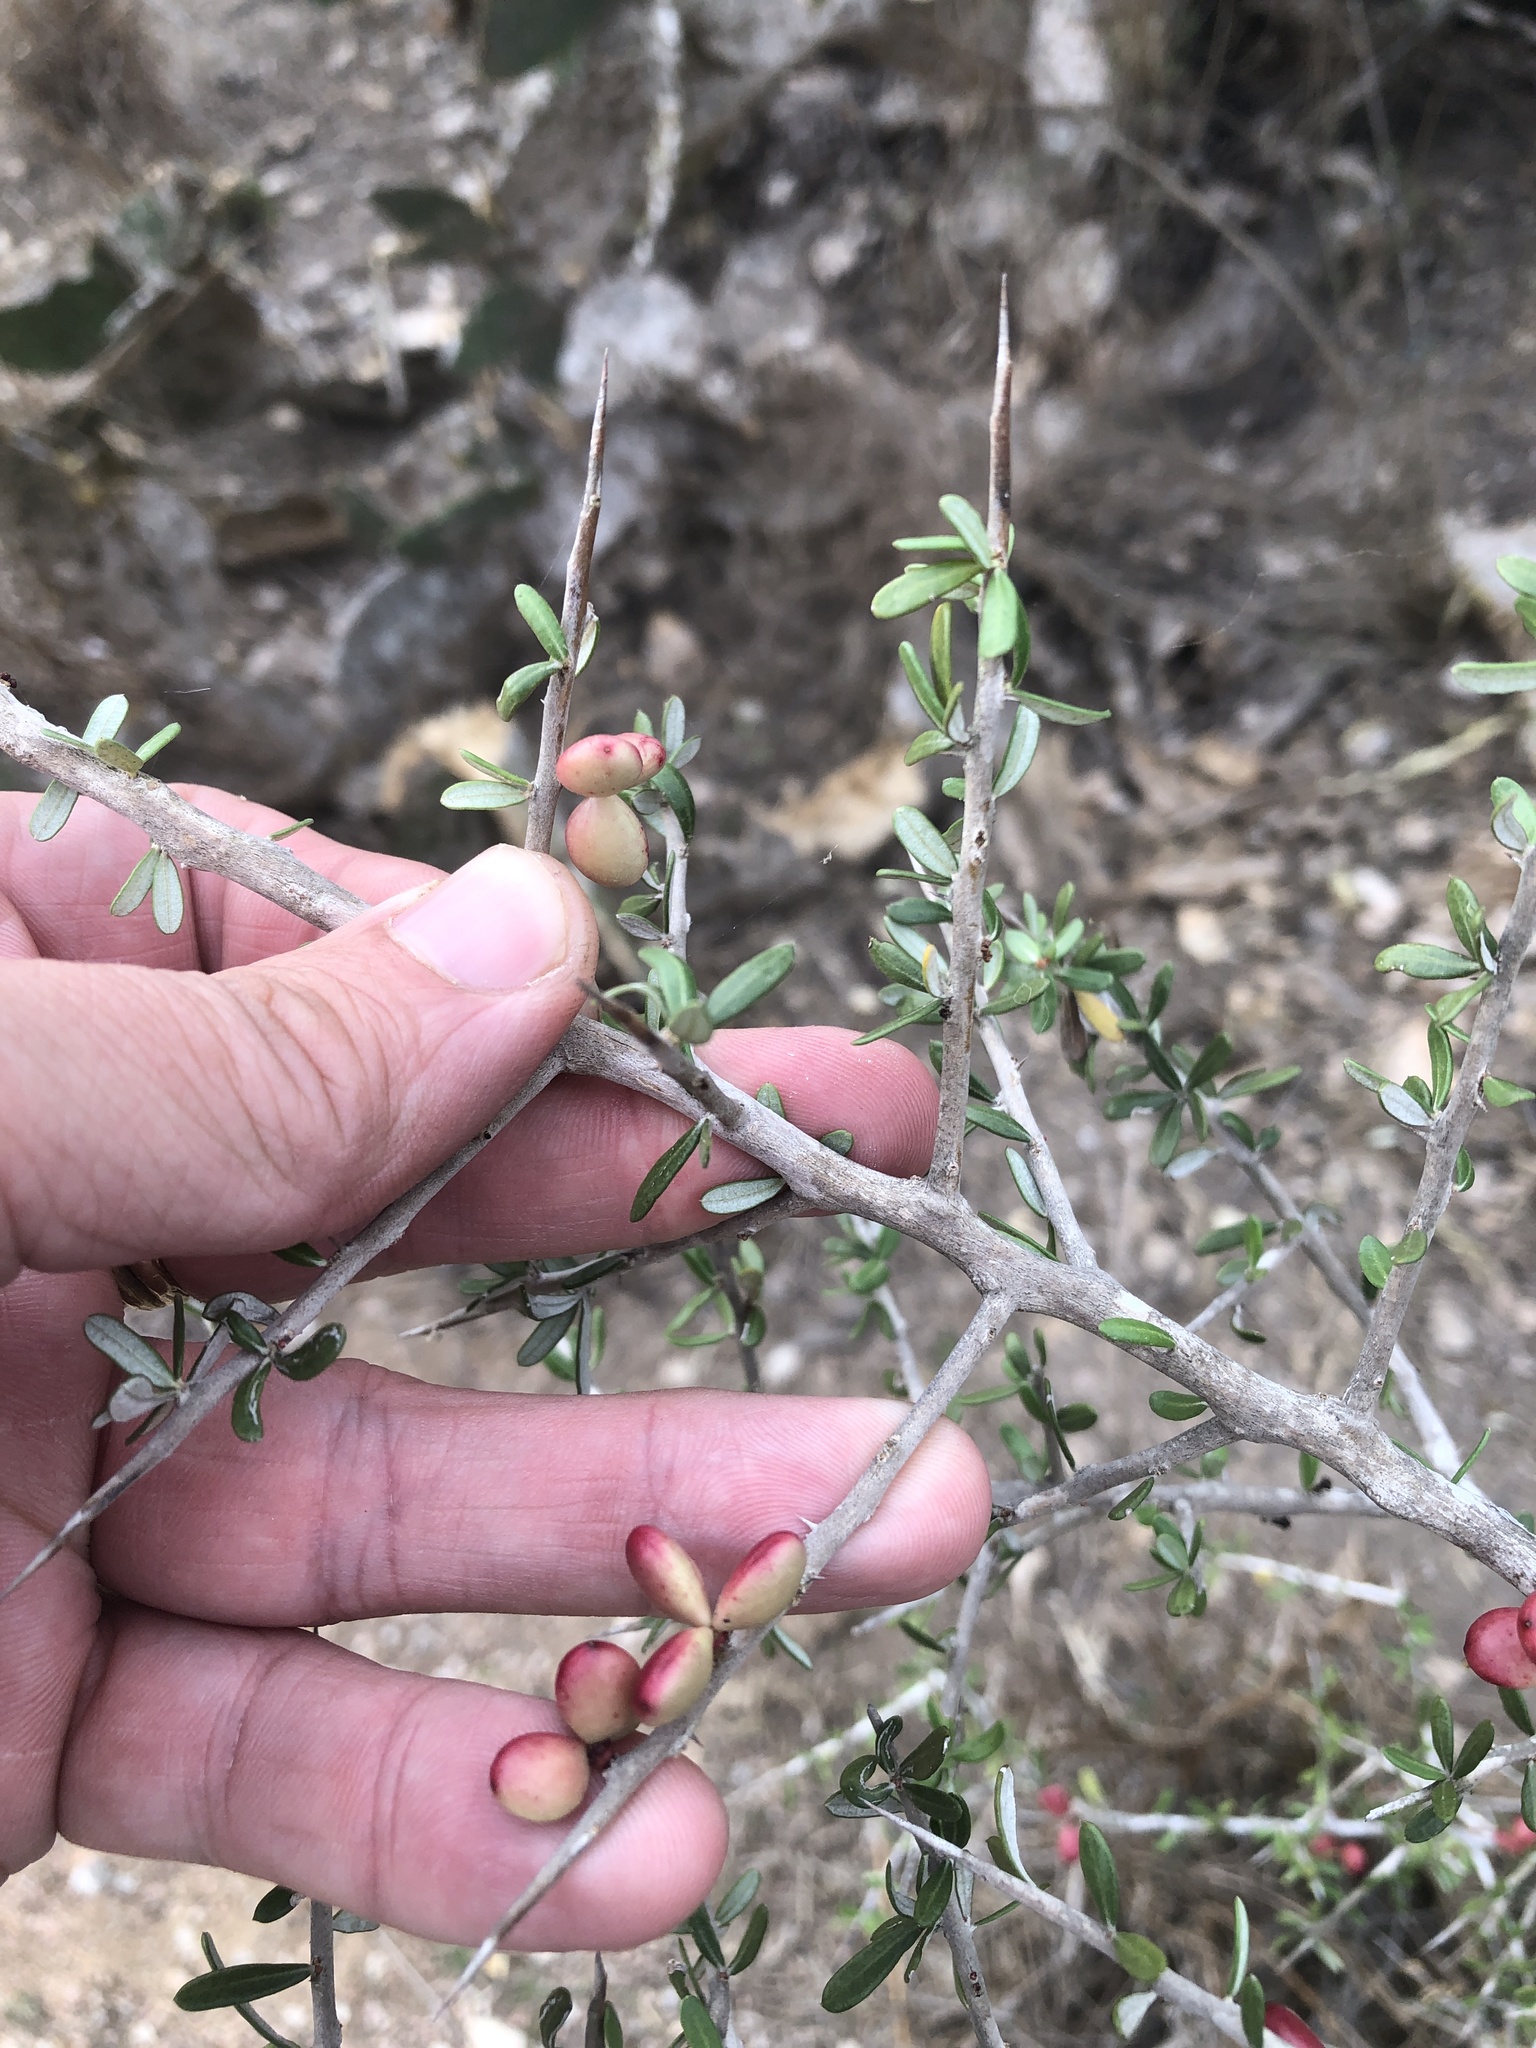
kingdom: Plantae
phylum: Tracheophyta
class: Magnoliopsida
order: Sapindales
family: Simaroubaceae
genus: Castela
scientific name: Castela erecta
